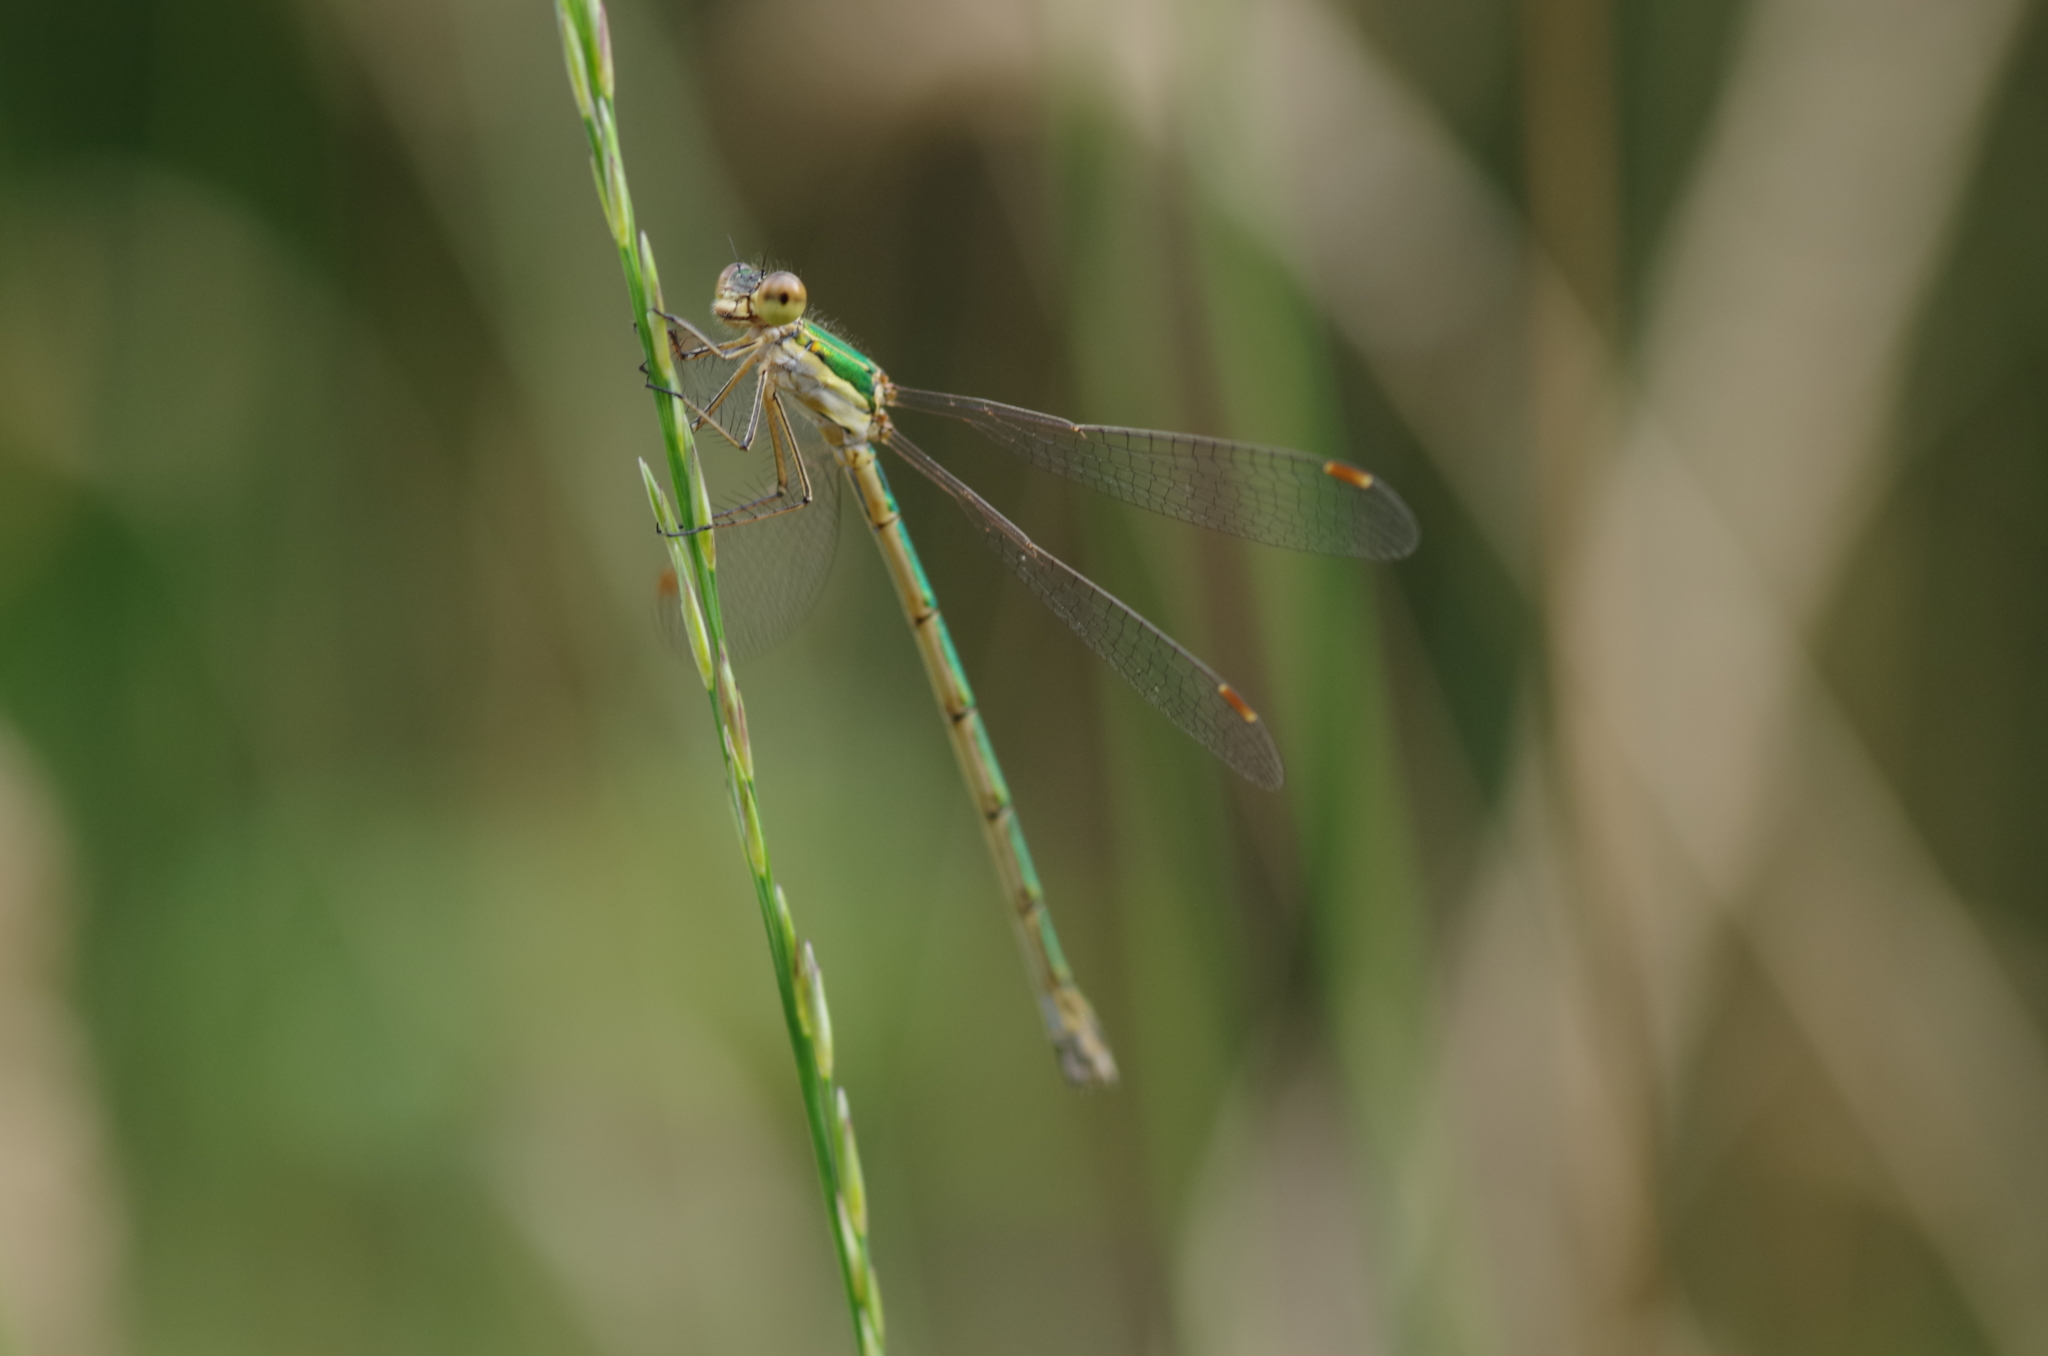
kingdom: Animalia
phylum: Arthropoda
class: Insecta
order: Odonata
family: Lestidae
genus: Lestes
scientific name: Lestes virens
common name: Small emerald spreadwing
